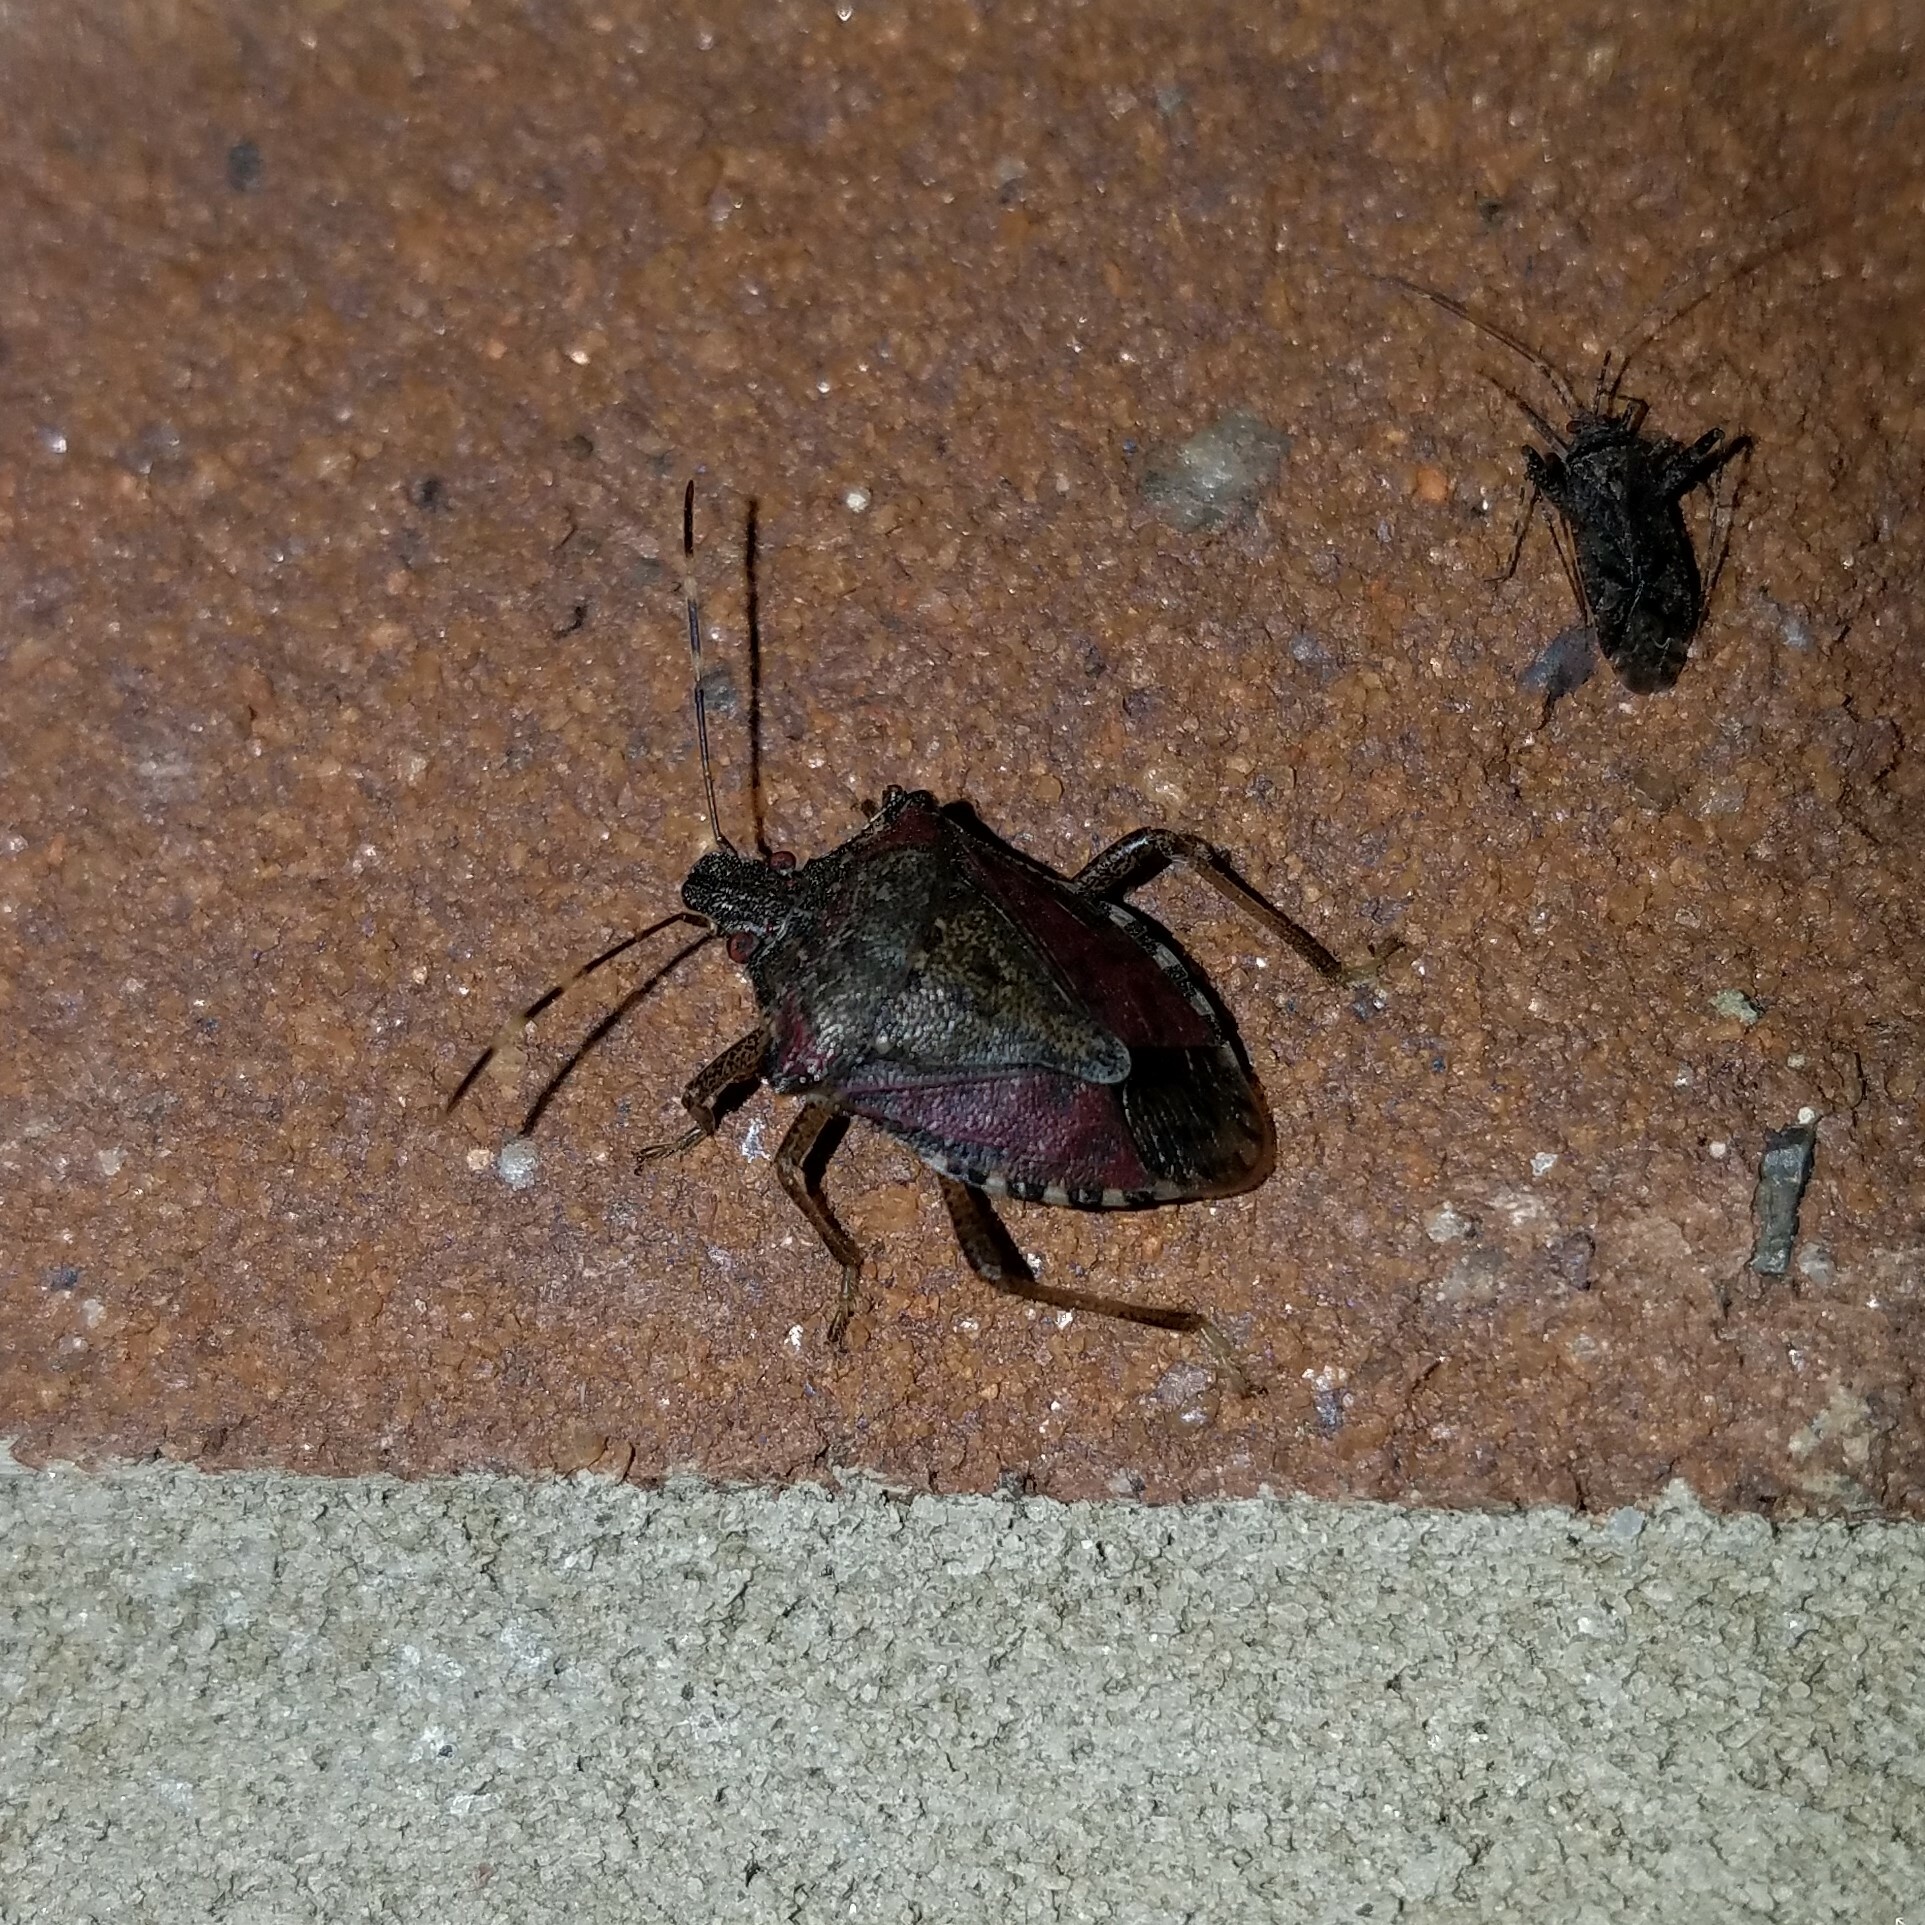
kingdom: Animalia
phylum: Arthropoda
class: Insecta
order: Hemiptera
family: Pentatomidae
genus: Halyomorpha
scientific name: Halyomorpha halys
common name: Brown marmorated stink bug
